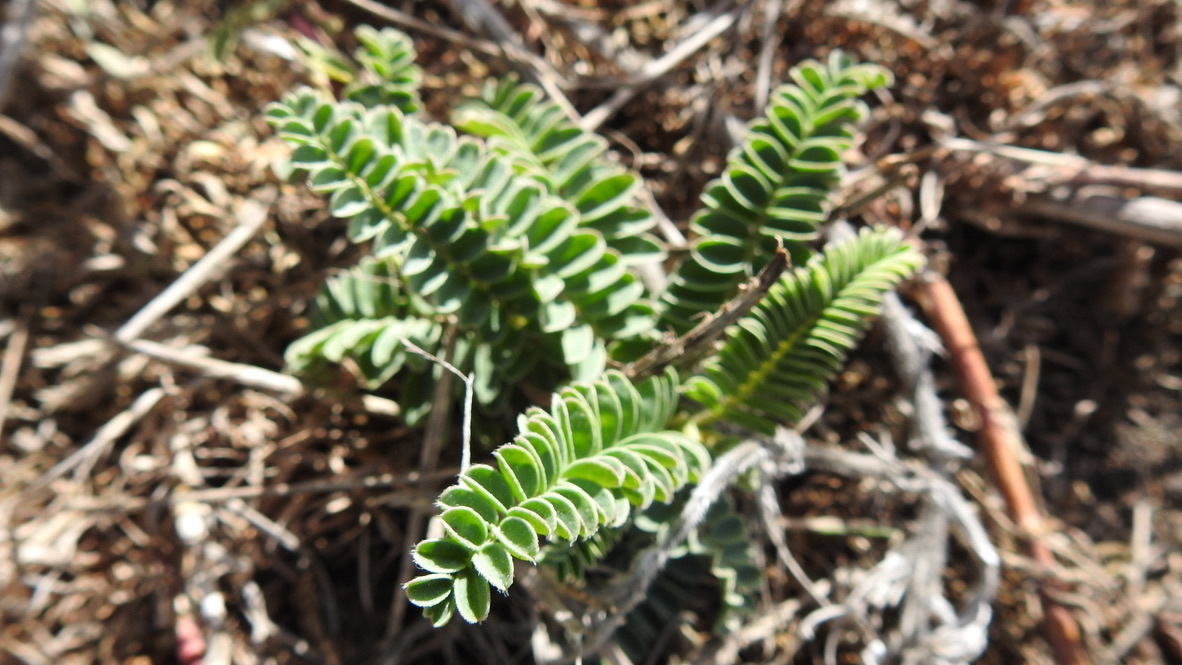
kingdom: Plantae
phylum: Tracheophyta
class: Magnoliopsida
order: Fabales
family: Fabaceae
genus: Astragalus
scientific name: Astragalus nuttallii
